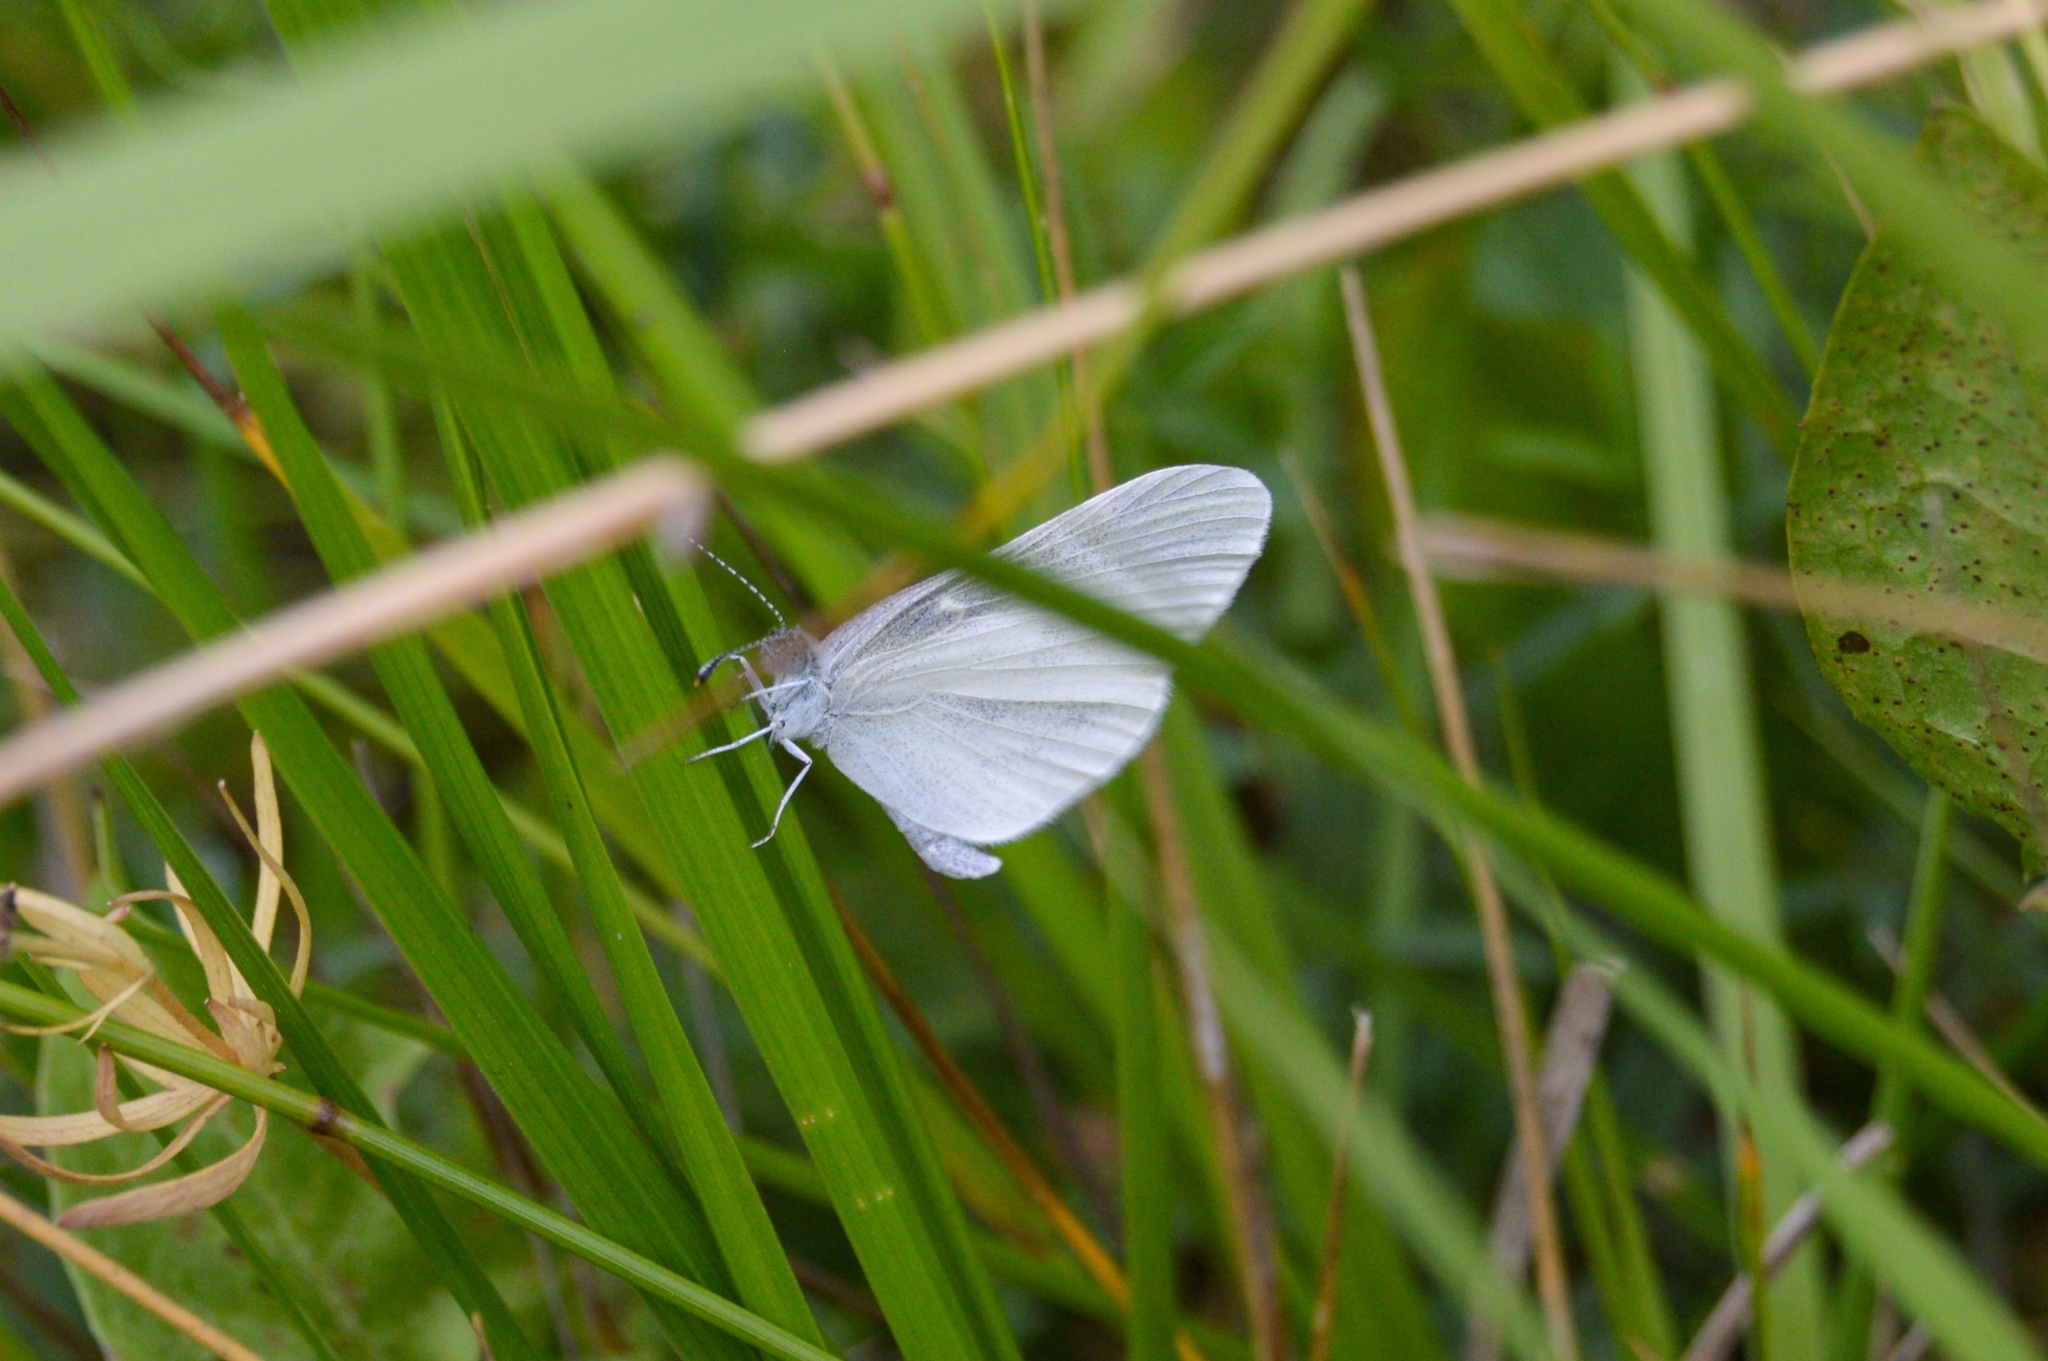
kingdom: Animalia
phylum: Arthropoda
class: Insecta
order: Lepidoptera
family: Pieridae
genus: Leptidea
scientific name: Leptidea
